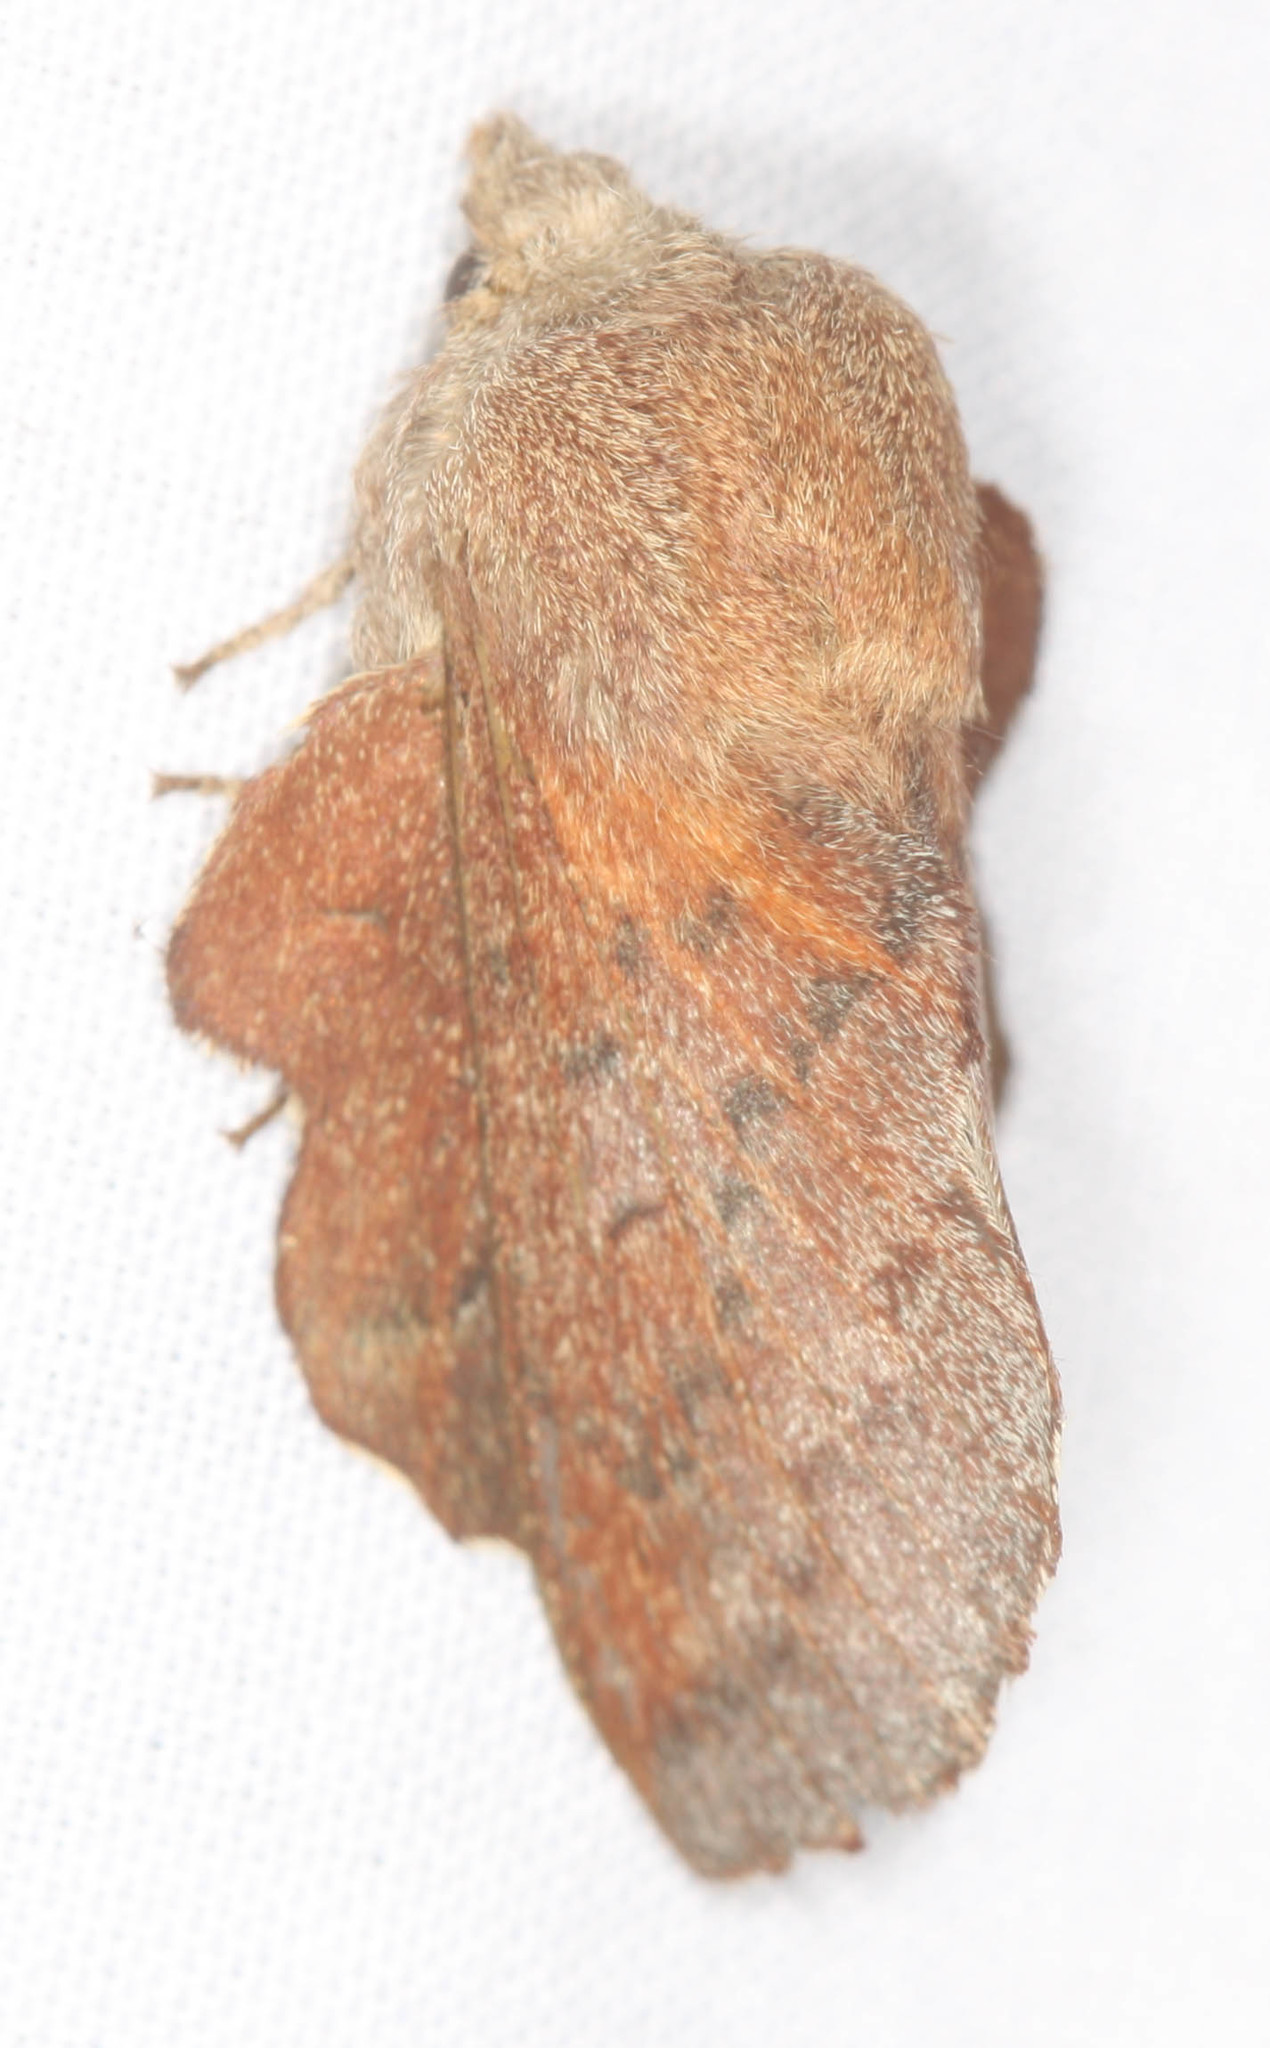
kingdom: Animalia
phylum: Arthropoda
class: Insecta
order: Lepidoptera
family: Lasiocampidae
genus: Phyllodesma
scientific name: Phyllodesma americana
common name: American lappet moth
